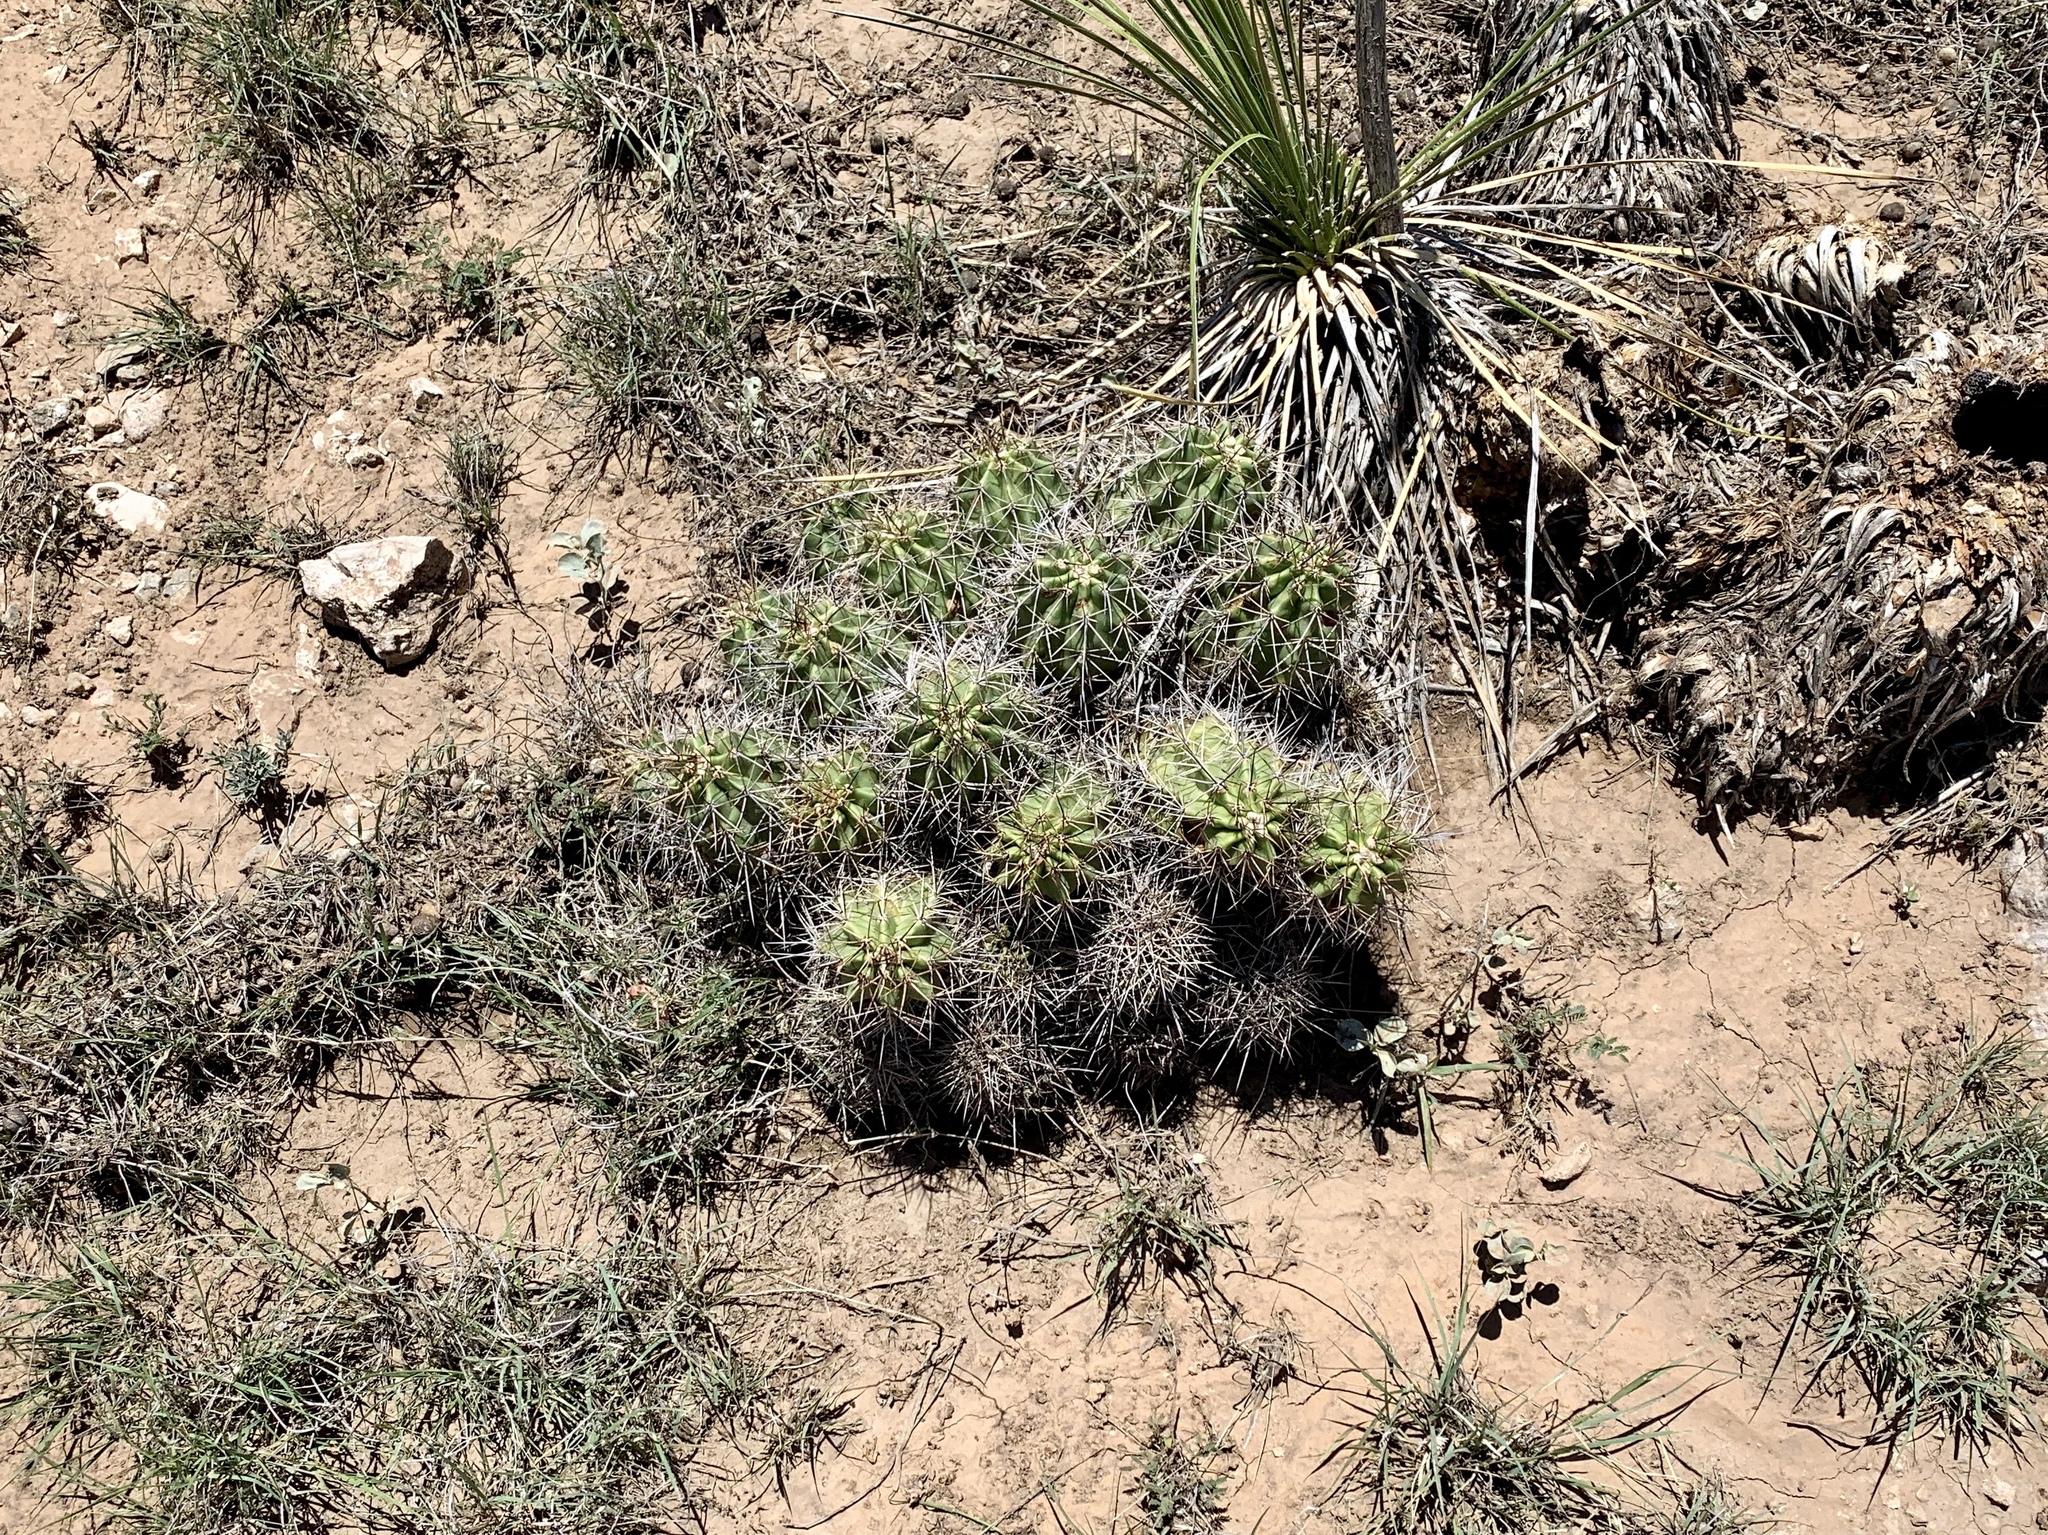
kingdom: Plantae
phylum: Tracheophyta
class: Magnoliopsida
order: Caryophyllales
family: Cactaceae
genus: Echinocereus
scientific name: Echinocereus coccineus
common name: Scarlet hedgehog cactus
